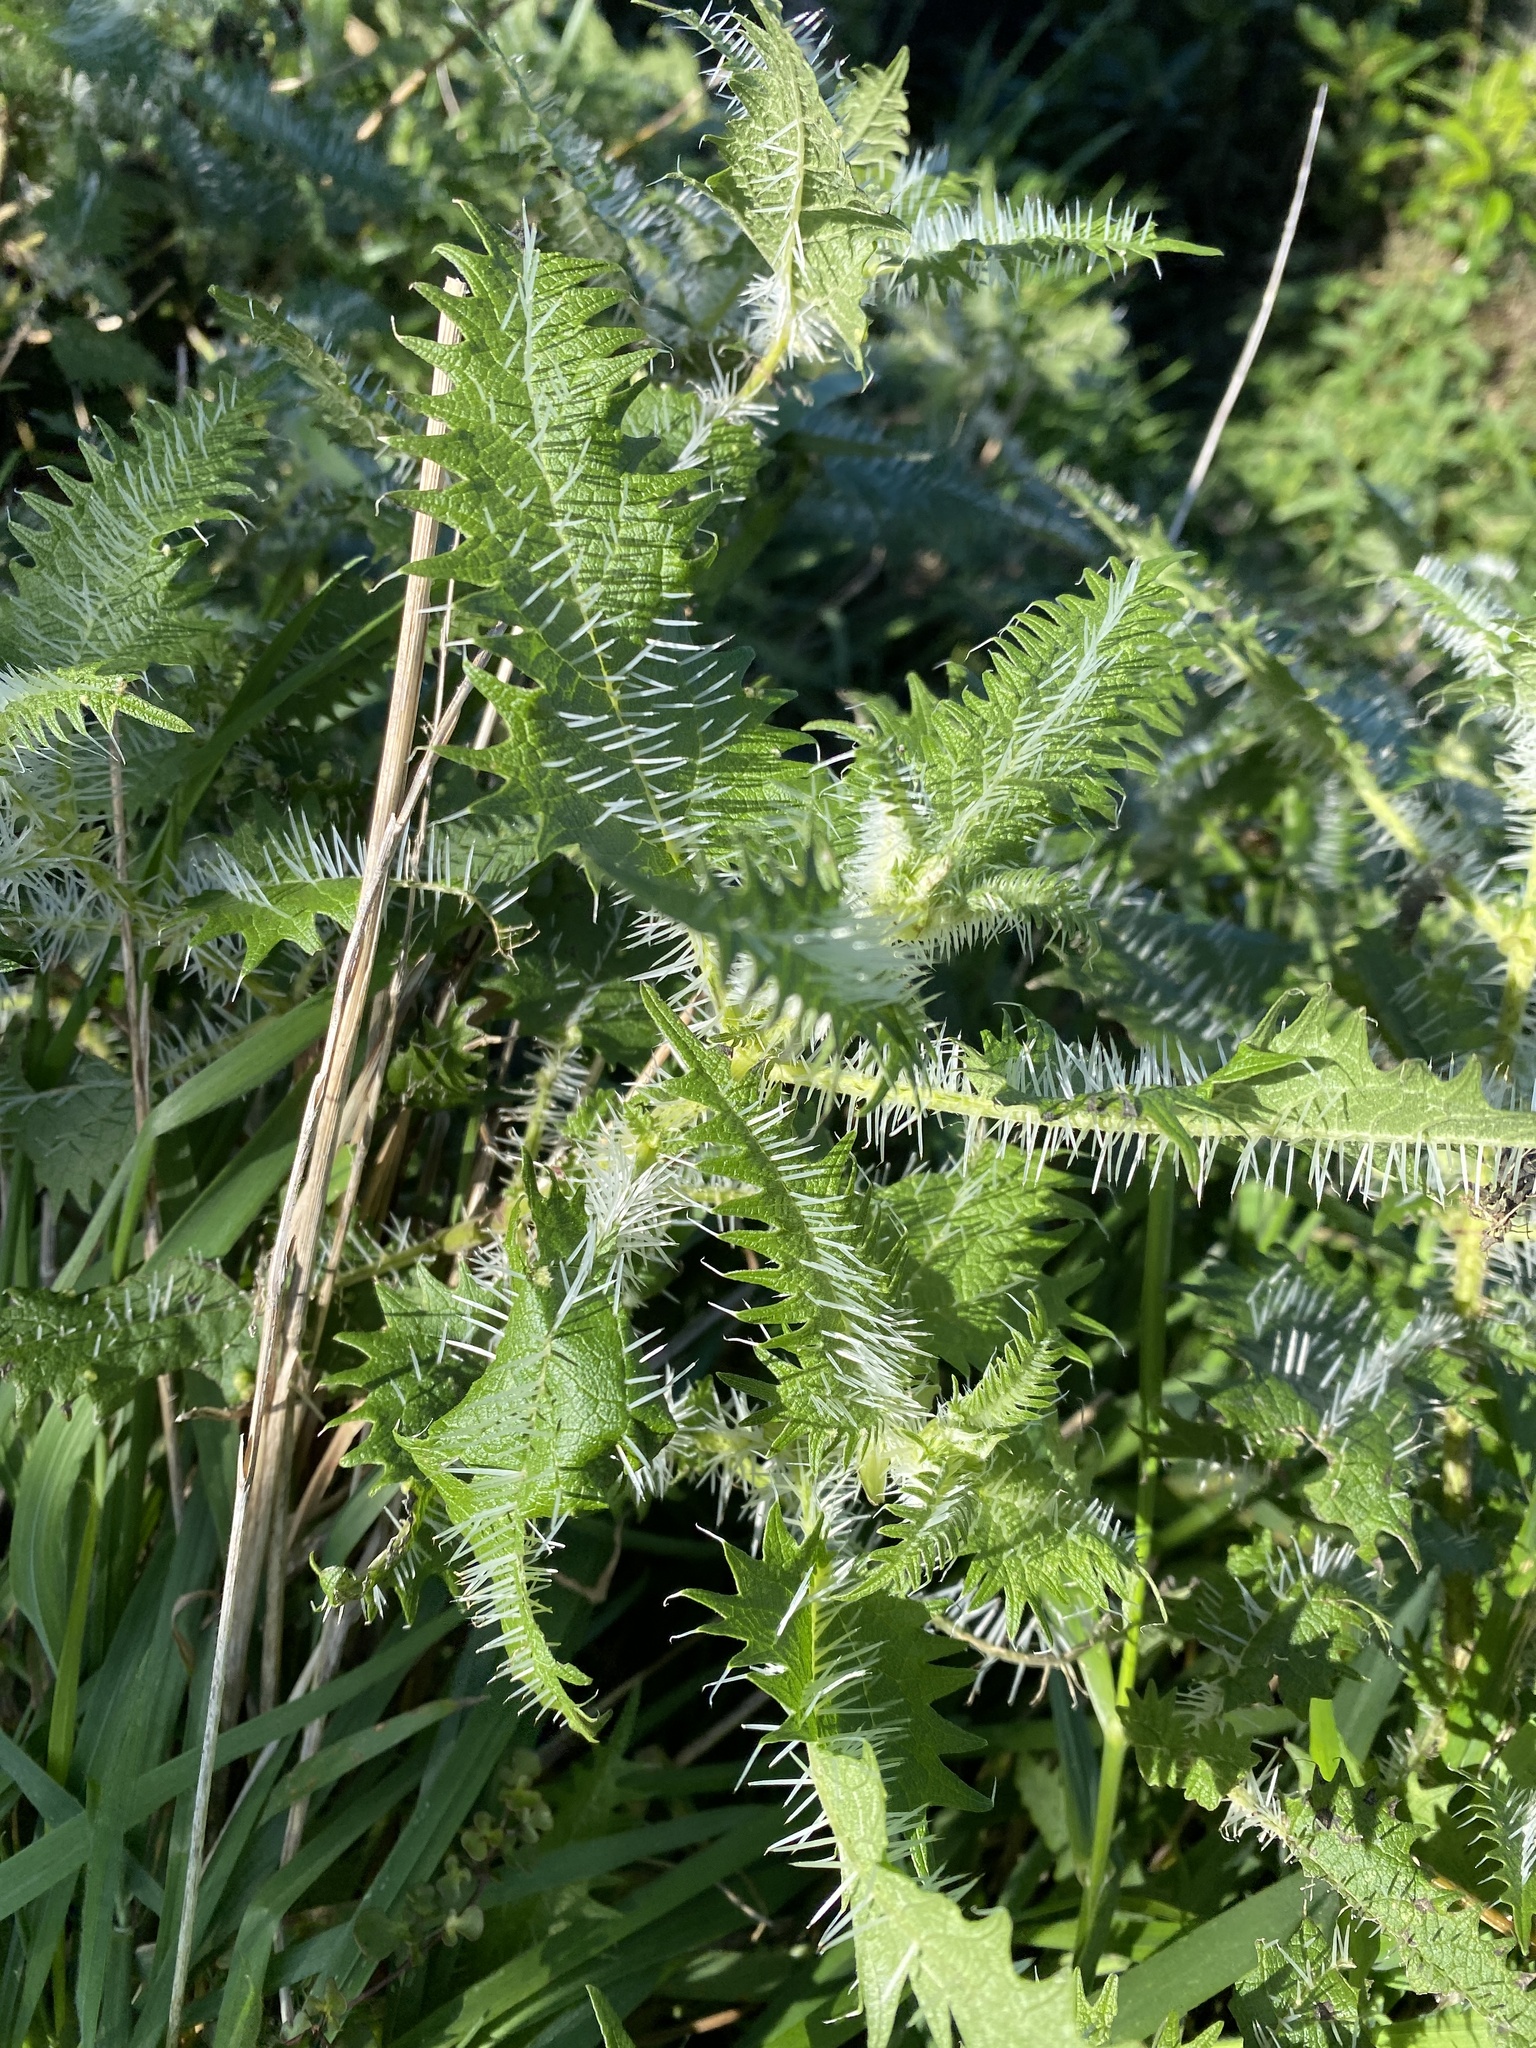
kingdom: Plantae
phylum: Tracheophyta
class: Magnoliopsida
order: Rosales
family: Urticaceae
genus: Urtica
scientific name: Urtica ferox
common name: Tree nettle
